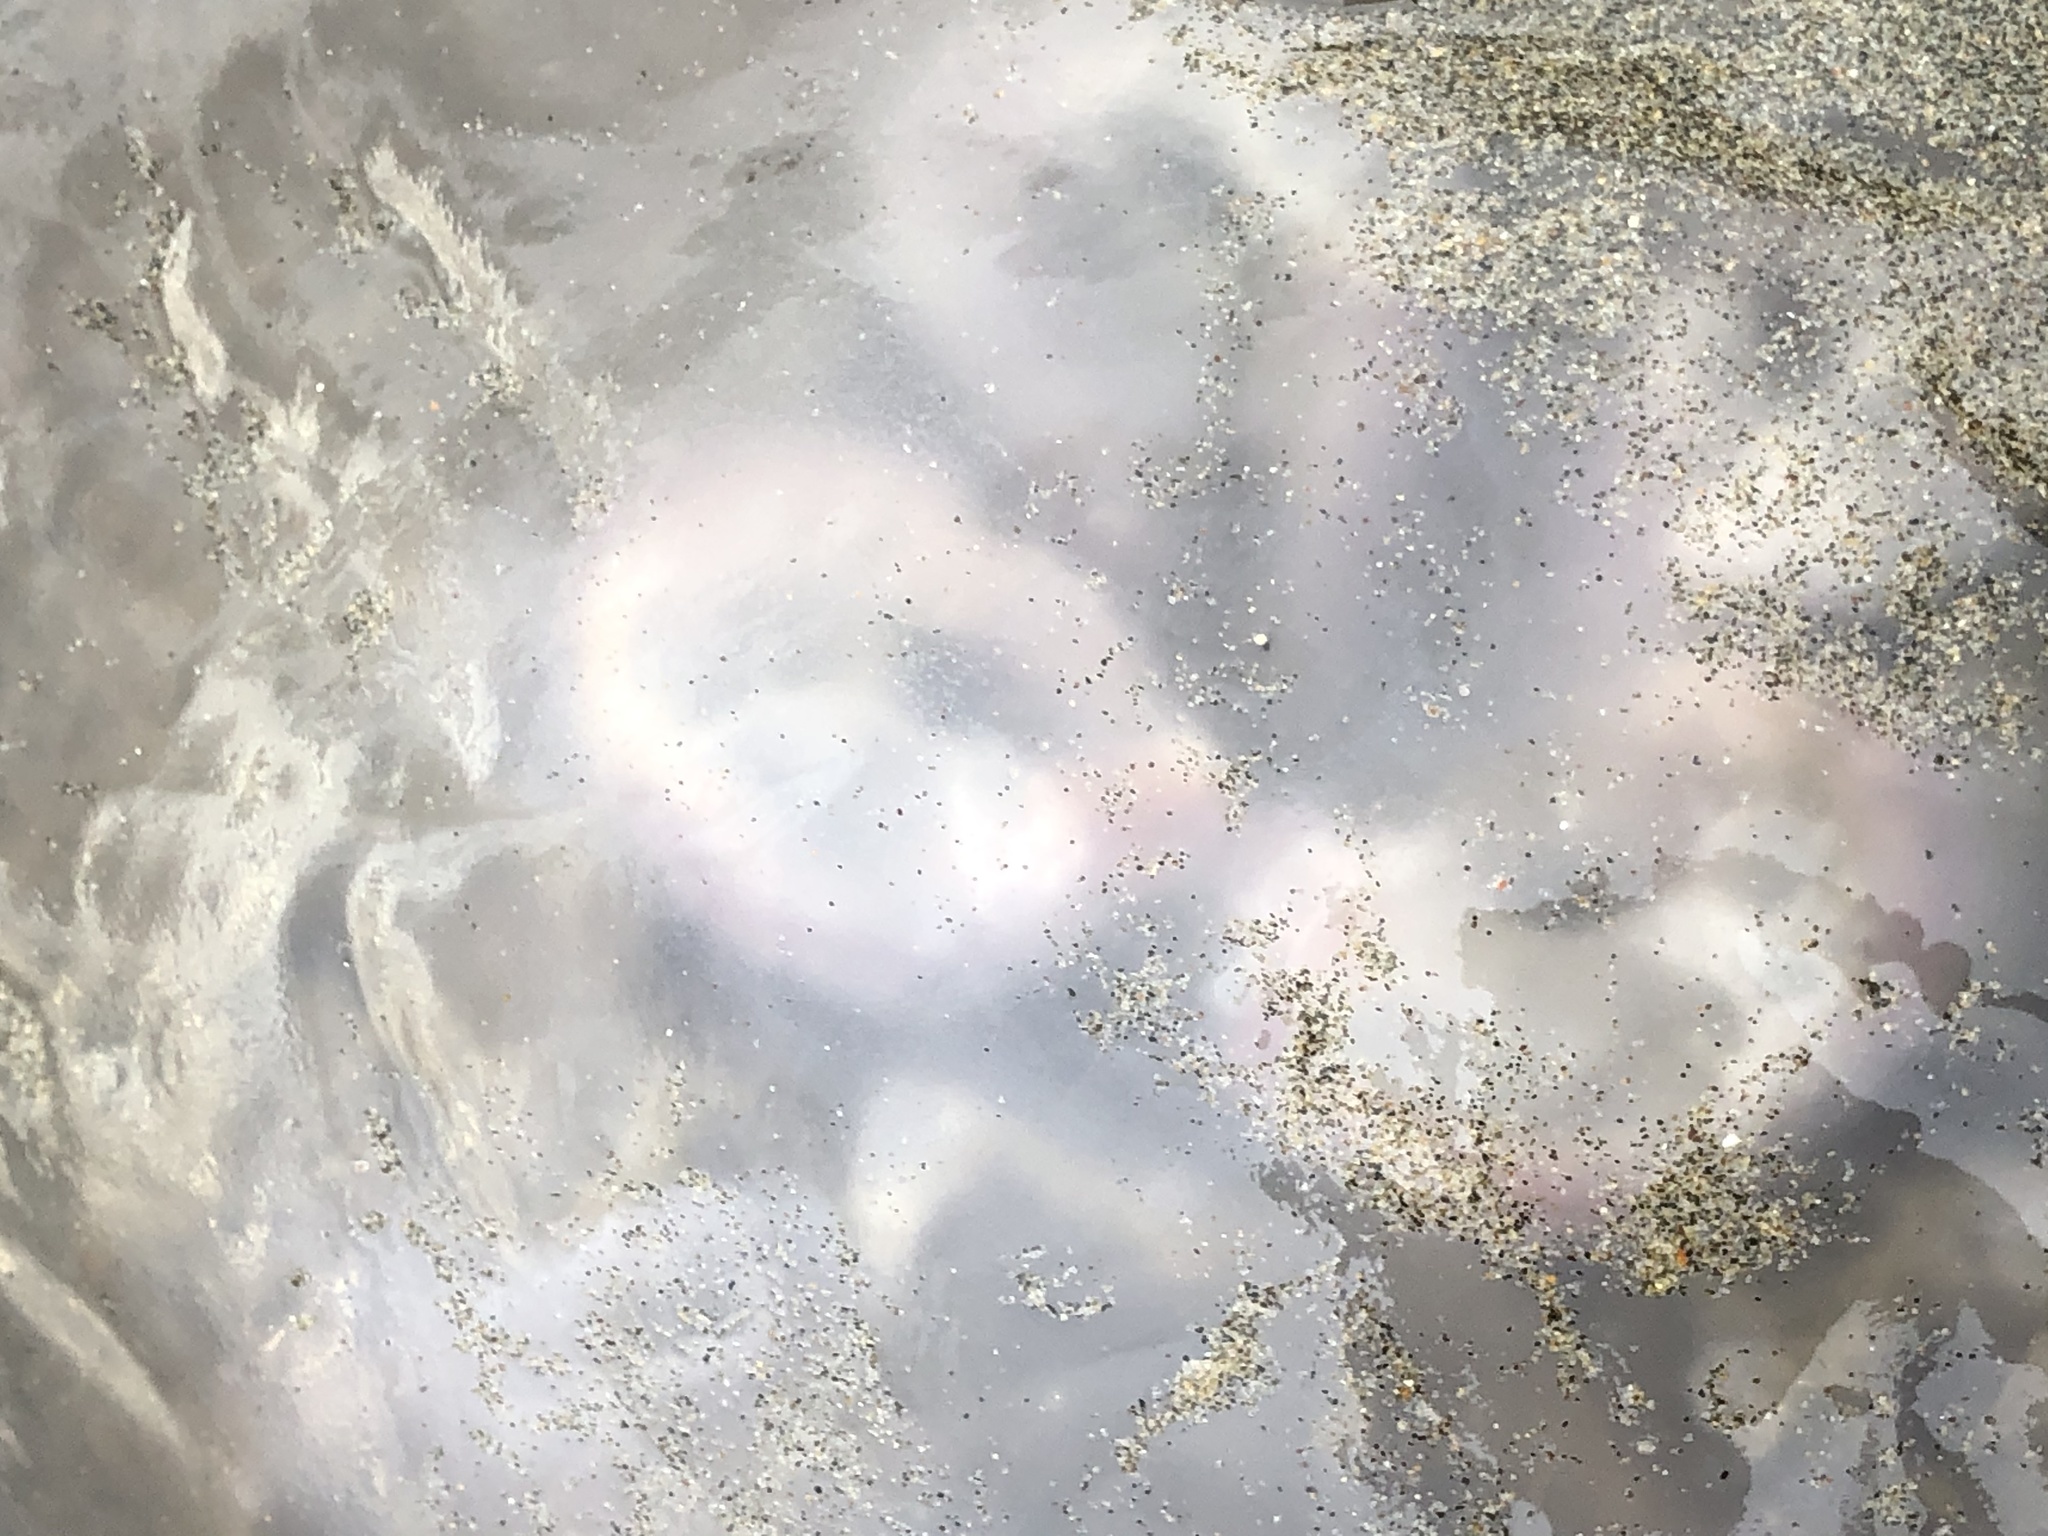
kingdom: Animalia
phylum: Cnidaria
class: Scyphozoa
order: Semaeostomeae
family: Ulmaridae
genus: Aurelia
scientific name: Aurelia labiata
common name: Pacific moon jelly
